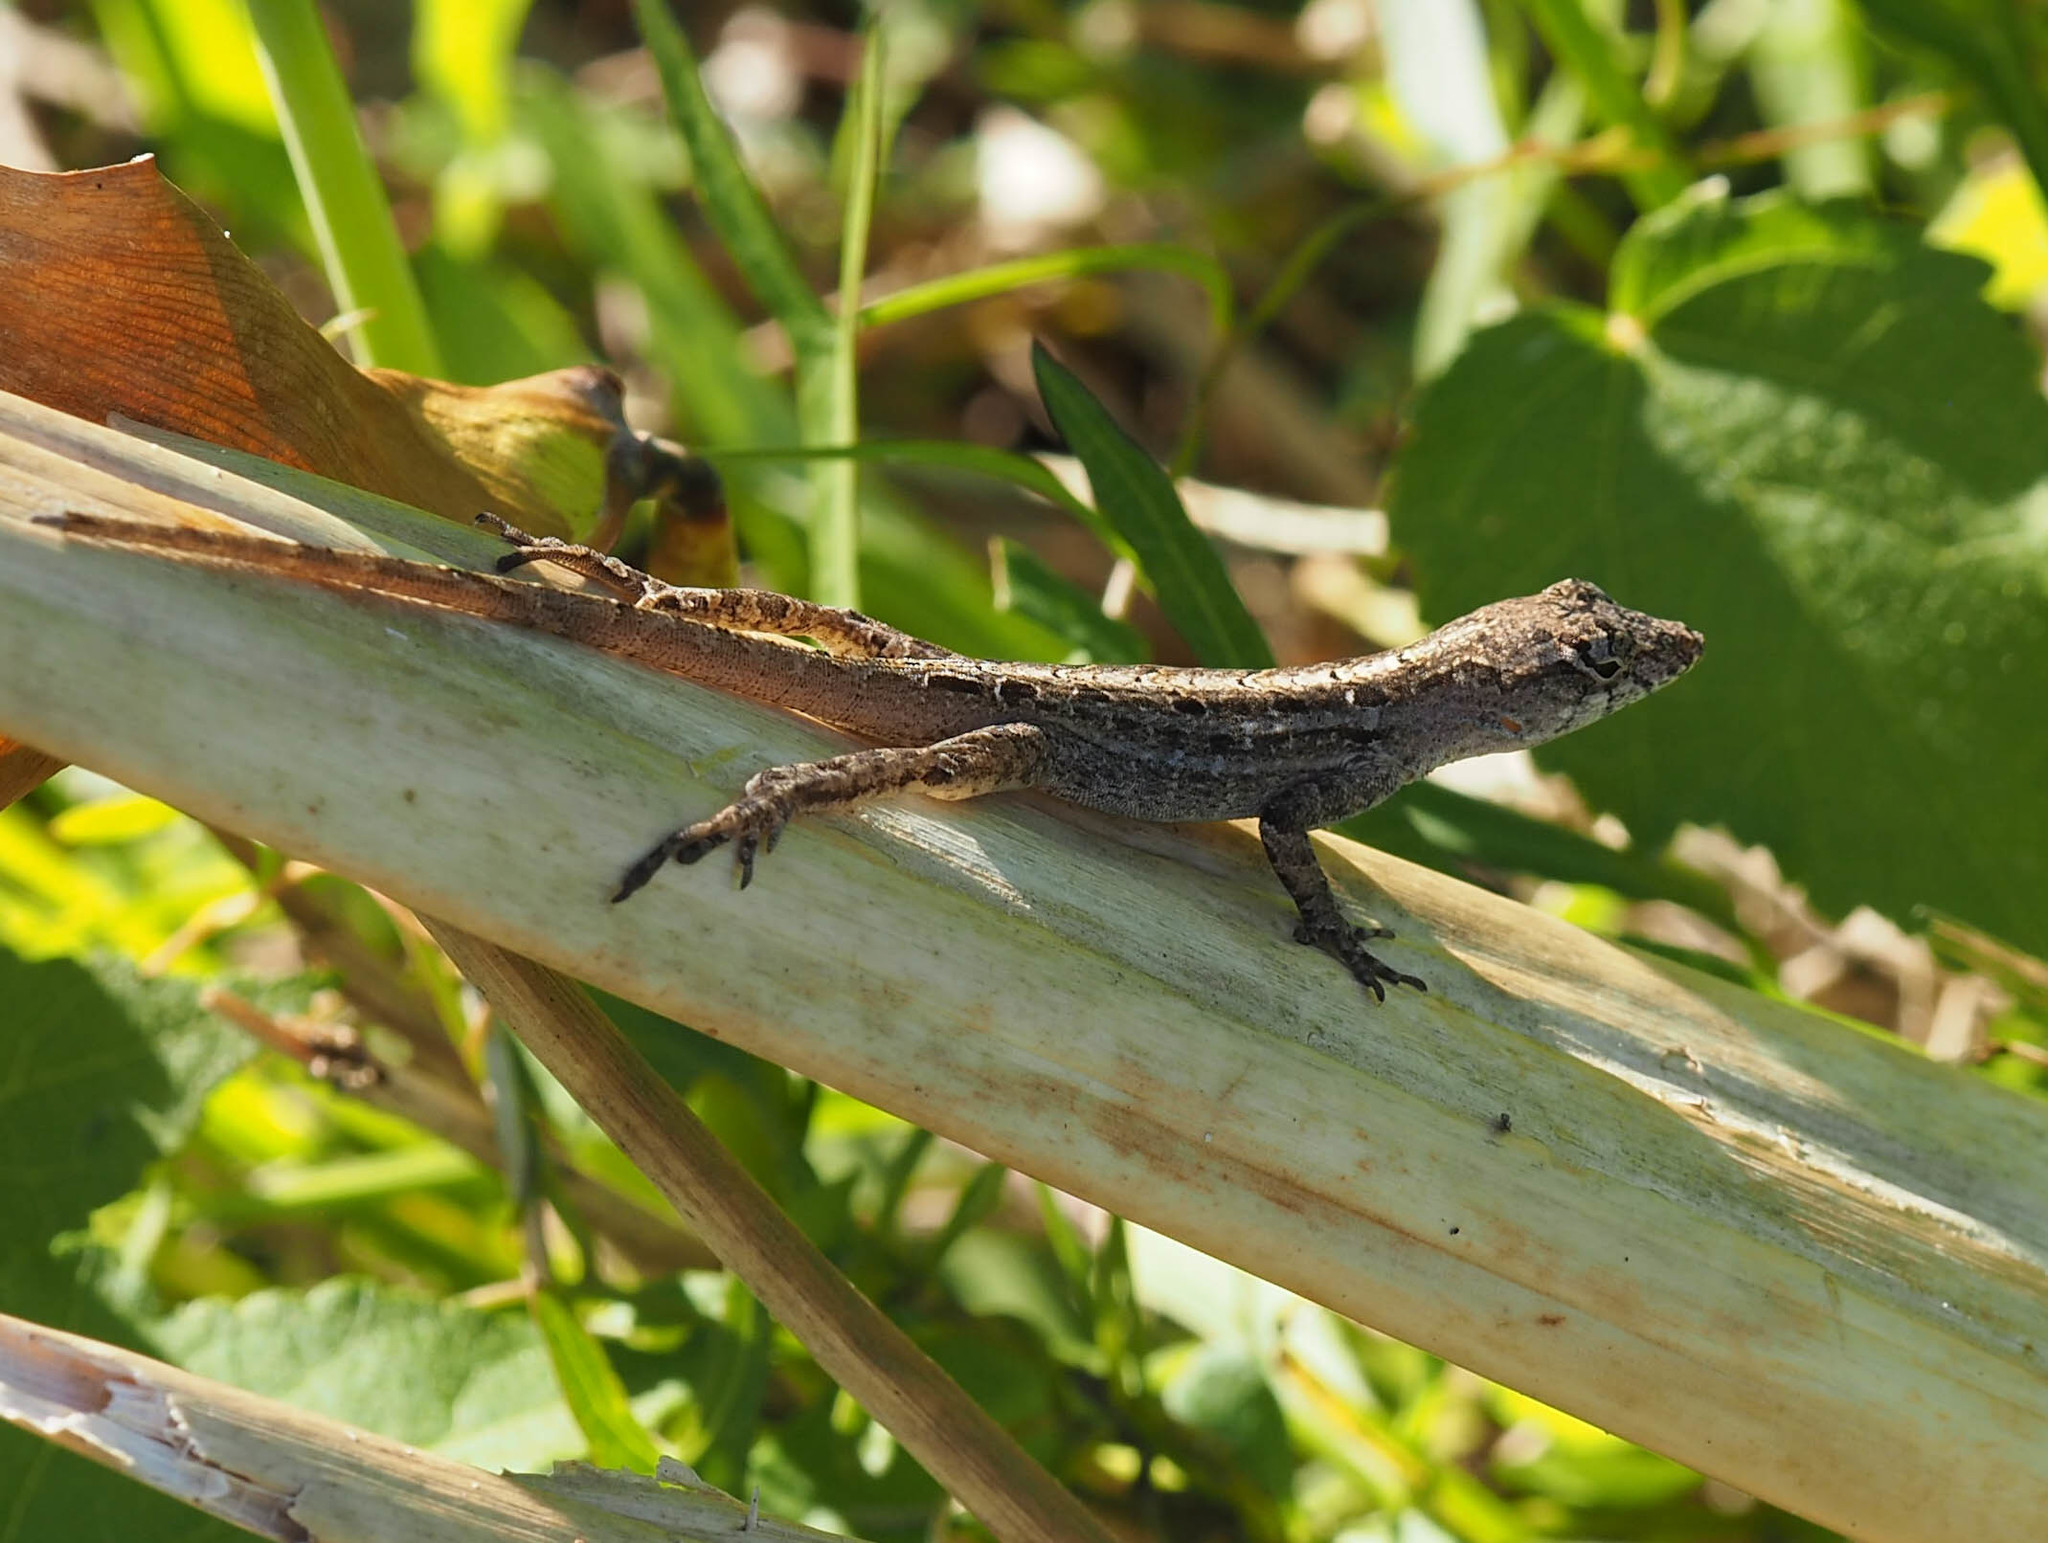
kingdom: Animalia
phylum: Chordata
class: Squamata
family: Dactyloidae
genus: Anolis
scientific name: Anolis sagrei
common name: Brown anole
